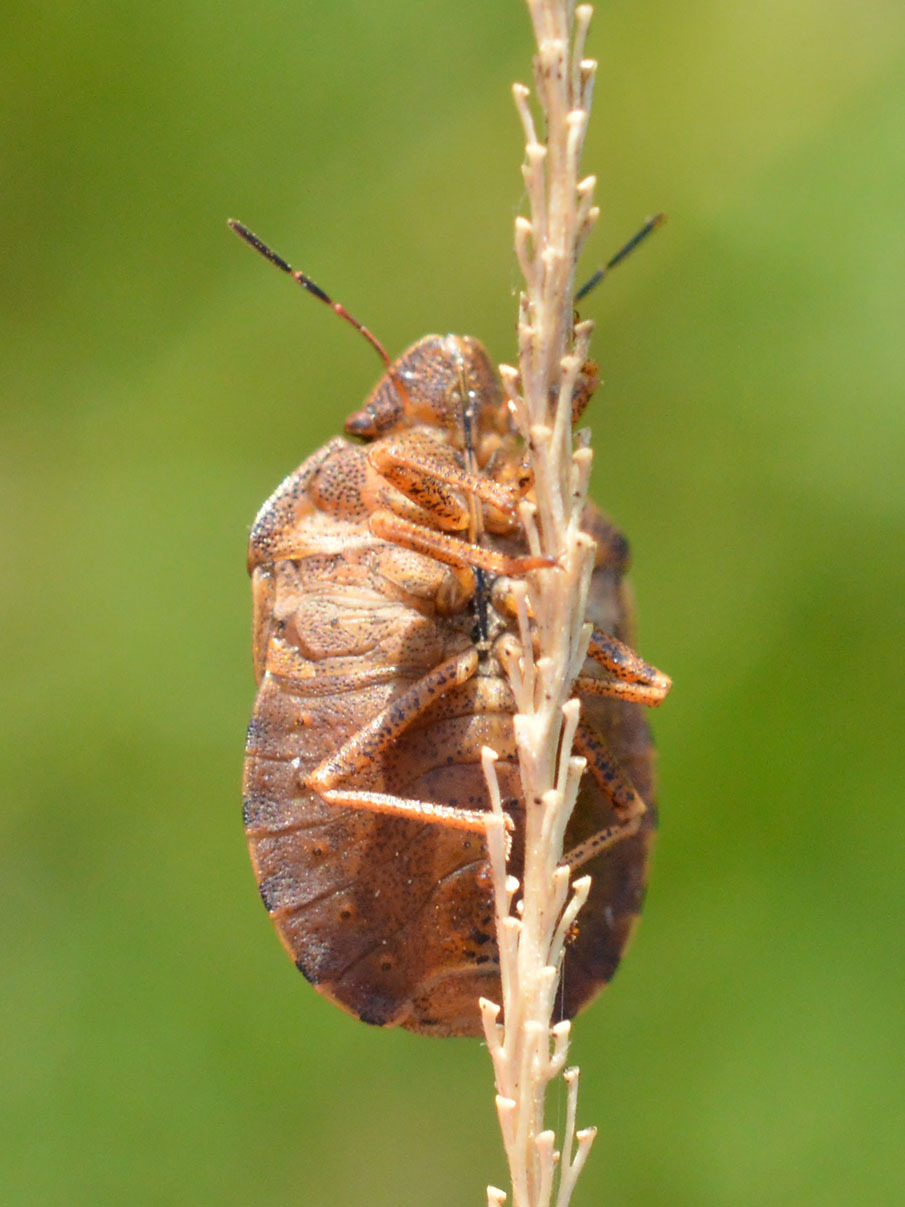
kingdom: Animalia
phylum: Arthropoda
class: Insecta
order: Hemiptera
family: Scutelleridae
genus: Eurygaster
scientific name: Eurygaster maura
